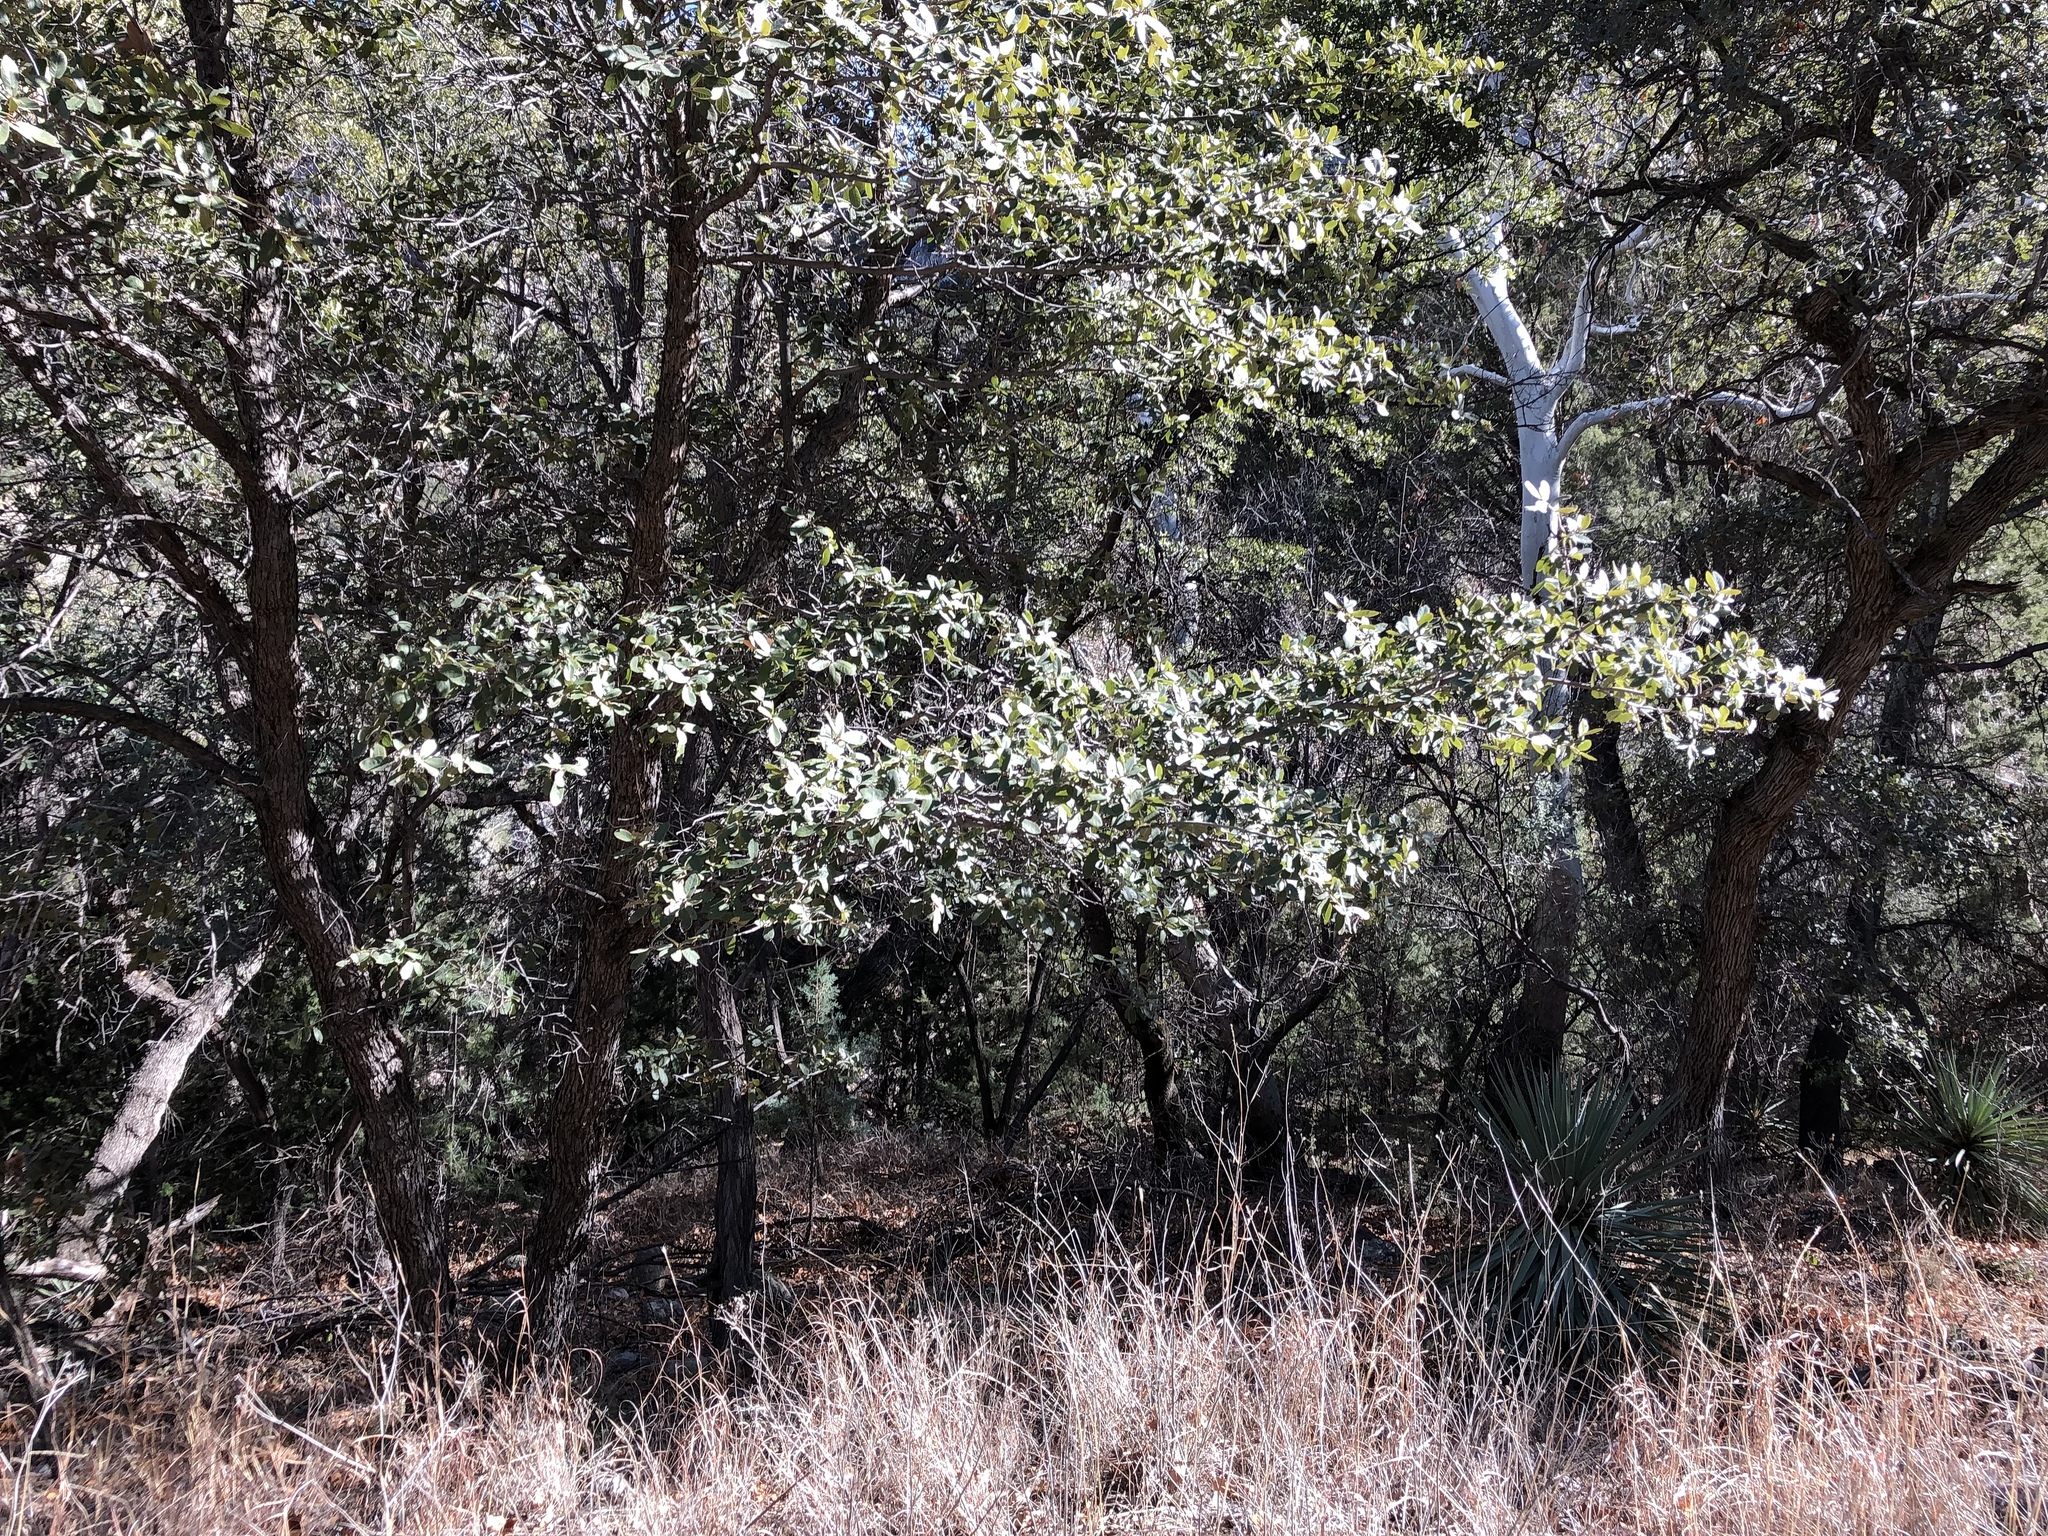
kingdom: Plantae
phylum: Tracheophyta
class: Magnoliopsida
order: Fagales
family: Fagaceae
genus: Quercus
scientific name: Quercus arizonica
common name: Arizona white oak
